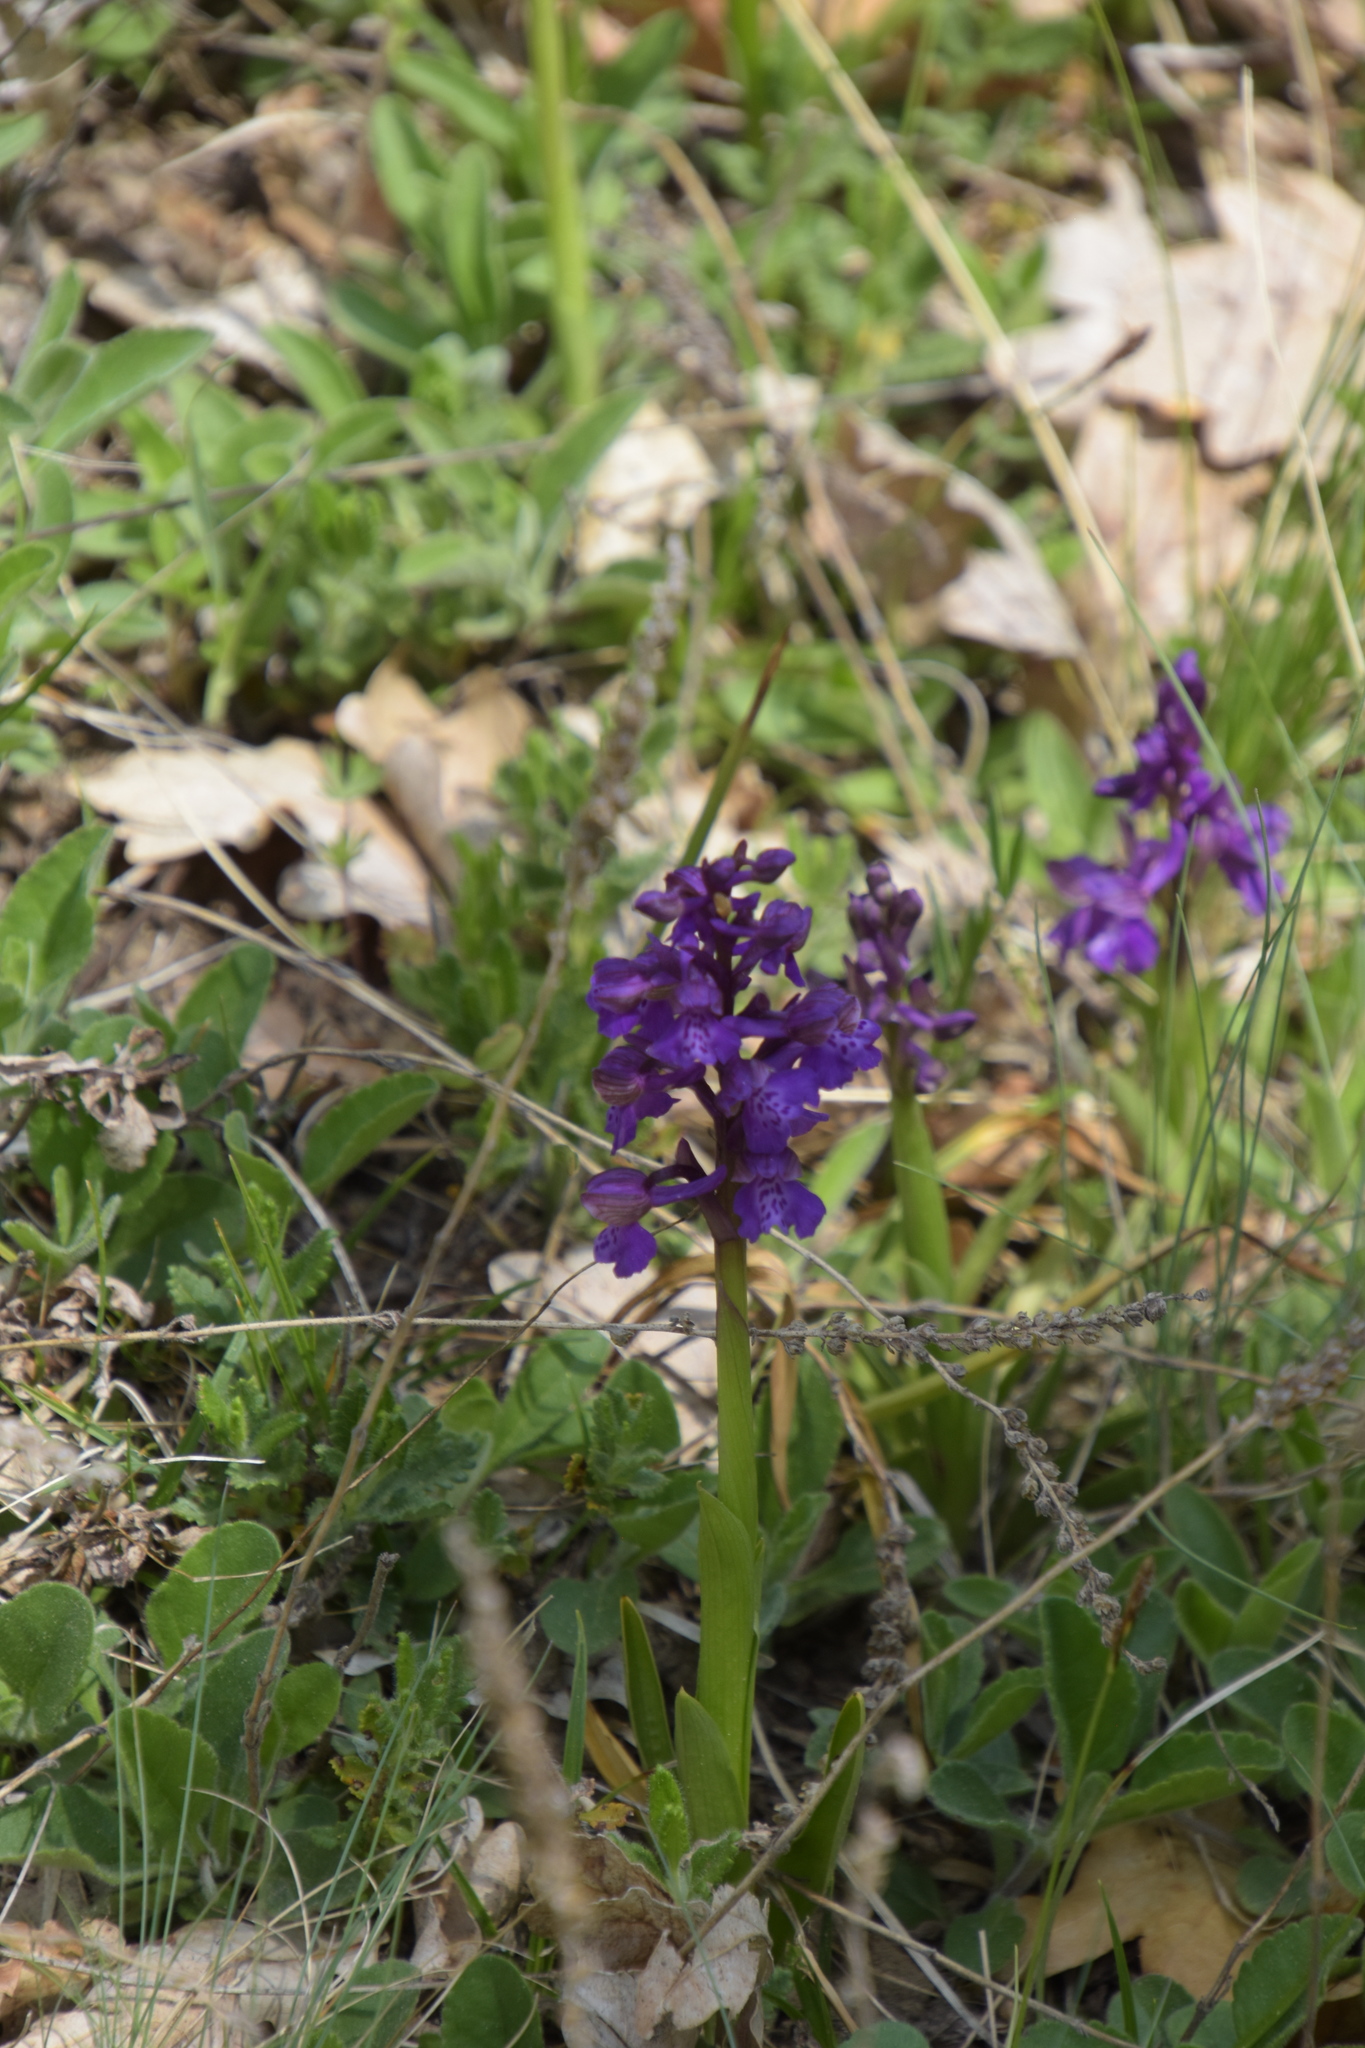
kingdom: Plantae
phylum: Tracheophyta
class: Liliopsida
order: Asparagales
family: Orchidaceae
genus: Anacamptis
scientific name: Anacamptis morio
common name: Green-winged orchid
